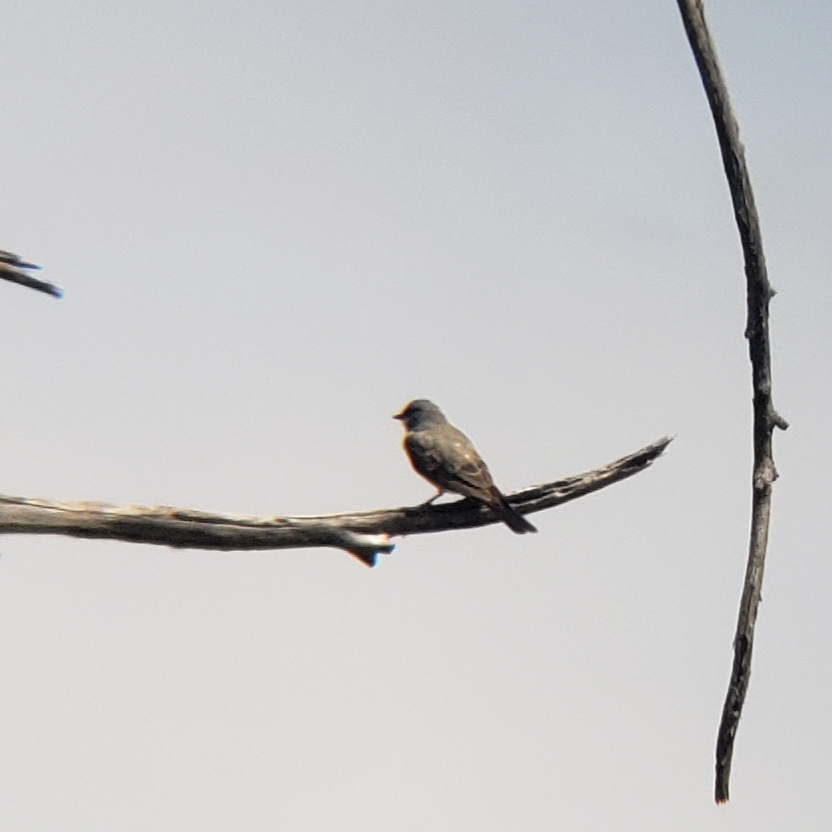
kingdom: Animalia
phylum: Chordata
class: Aves
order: Passeriformes
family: Tyrannidae
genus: Tyrannus
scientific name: Tyrannus vociferans
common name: Cassin's kingbird
